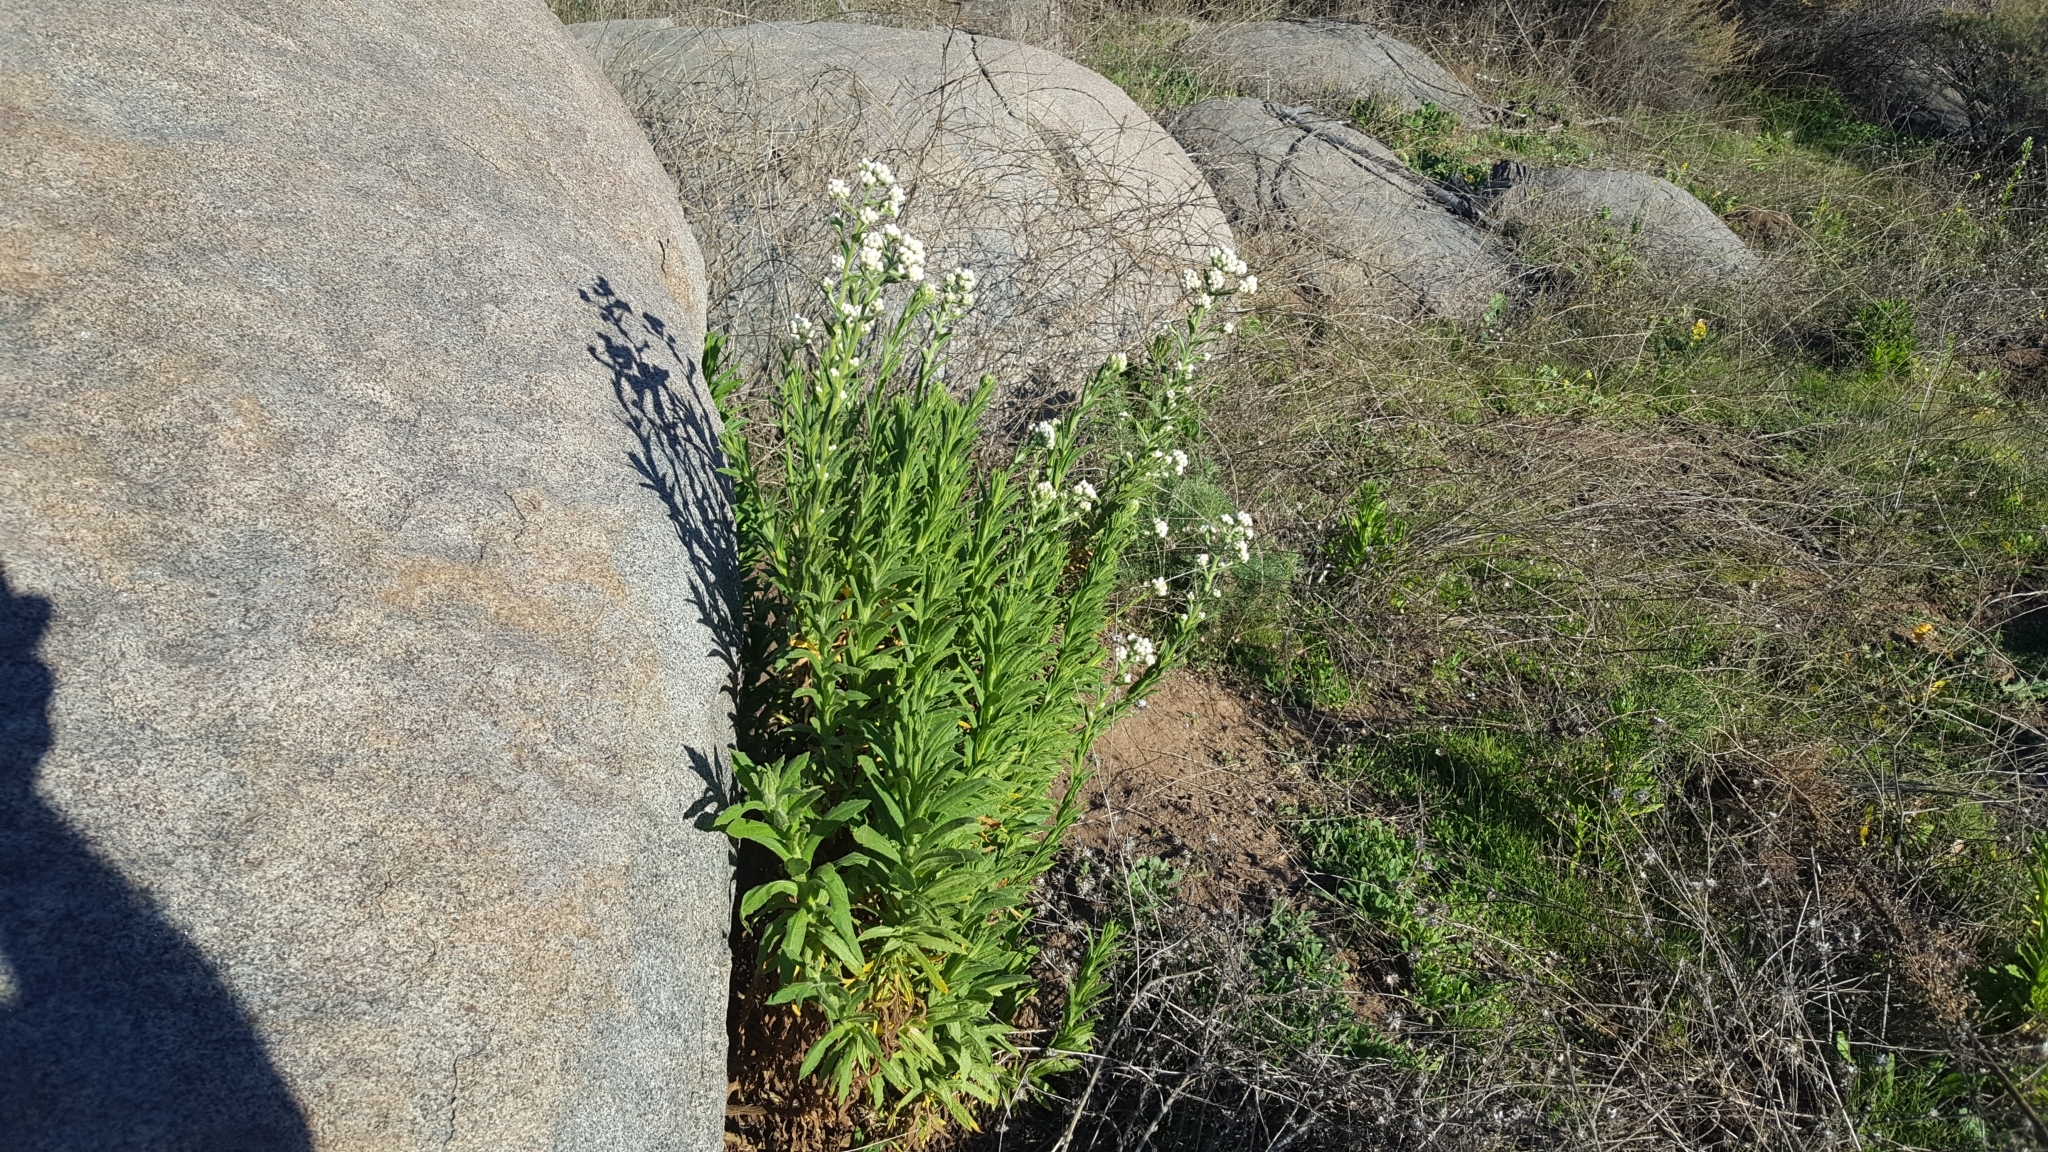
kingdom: Plantae
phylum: Tracheophyta
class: Magnoliopsida
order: Asterales
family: Asteraceae
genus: Pseudognaphalium
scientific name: Pseudognaphalium californicum
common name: California rabbit-tobacco
